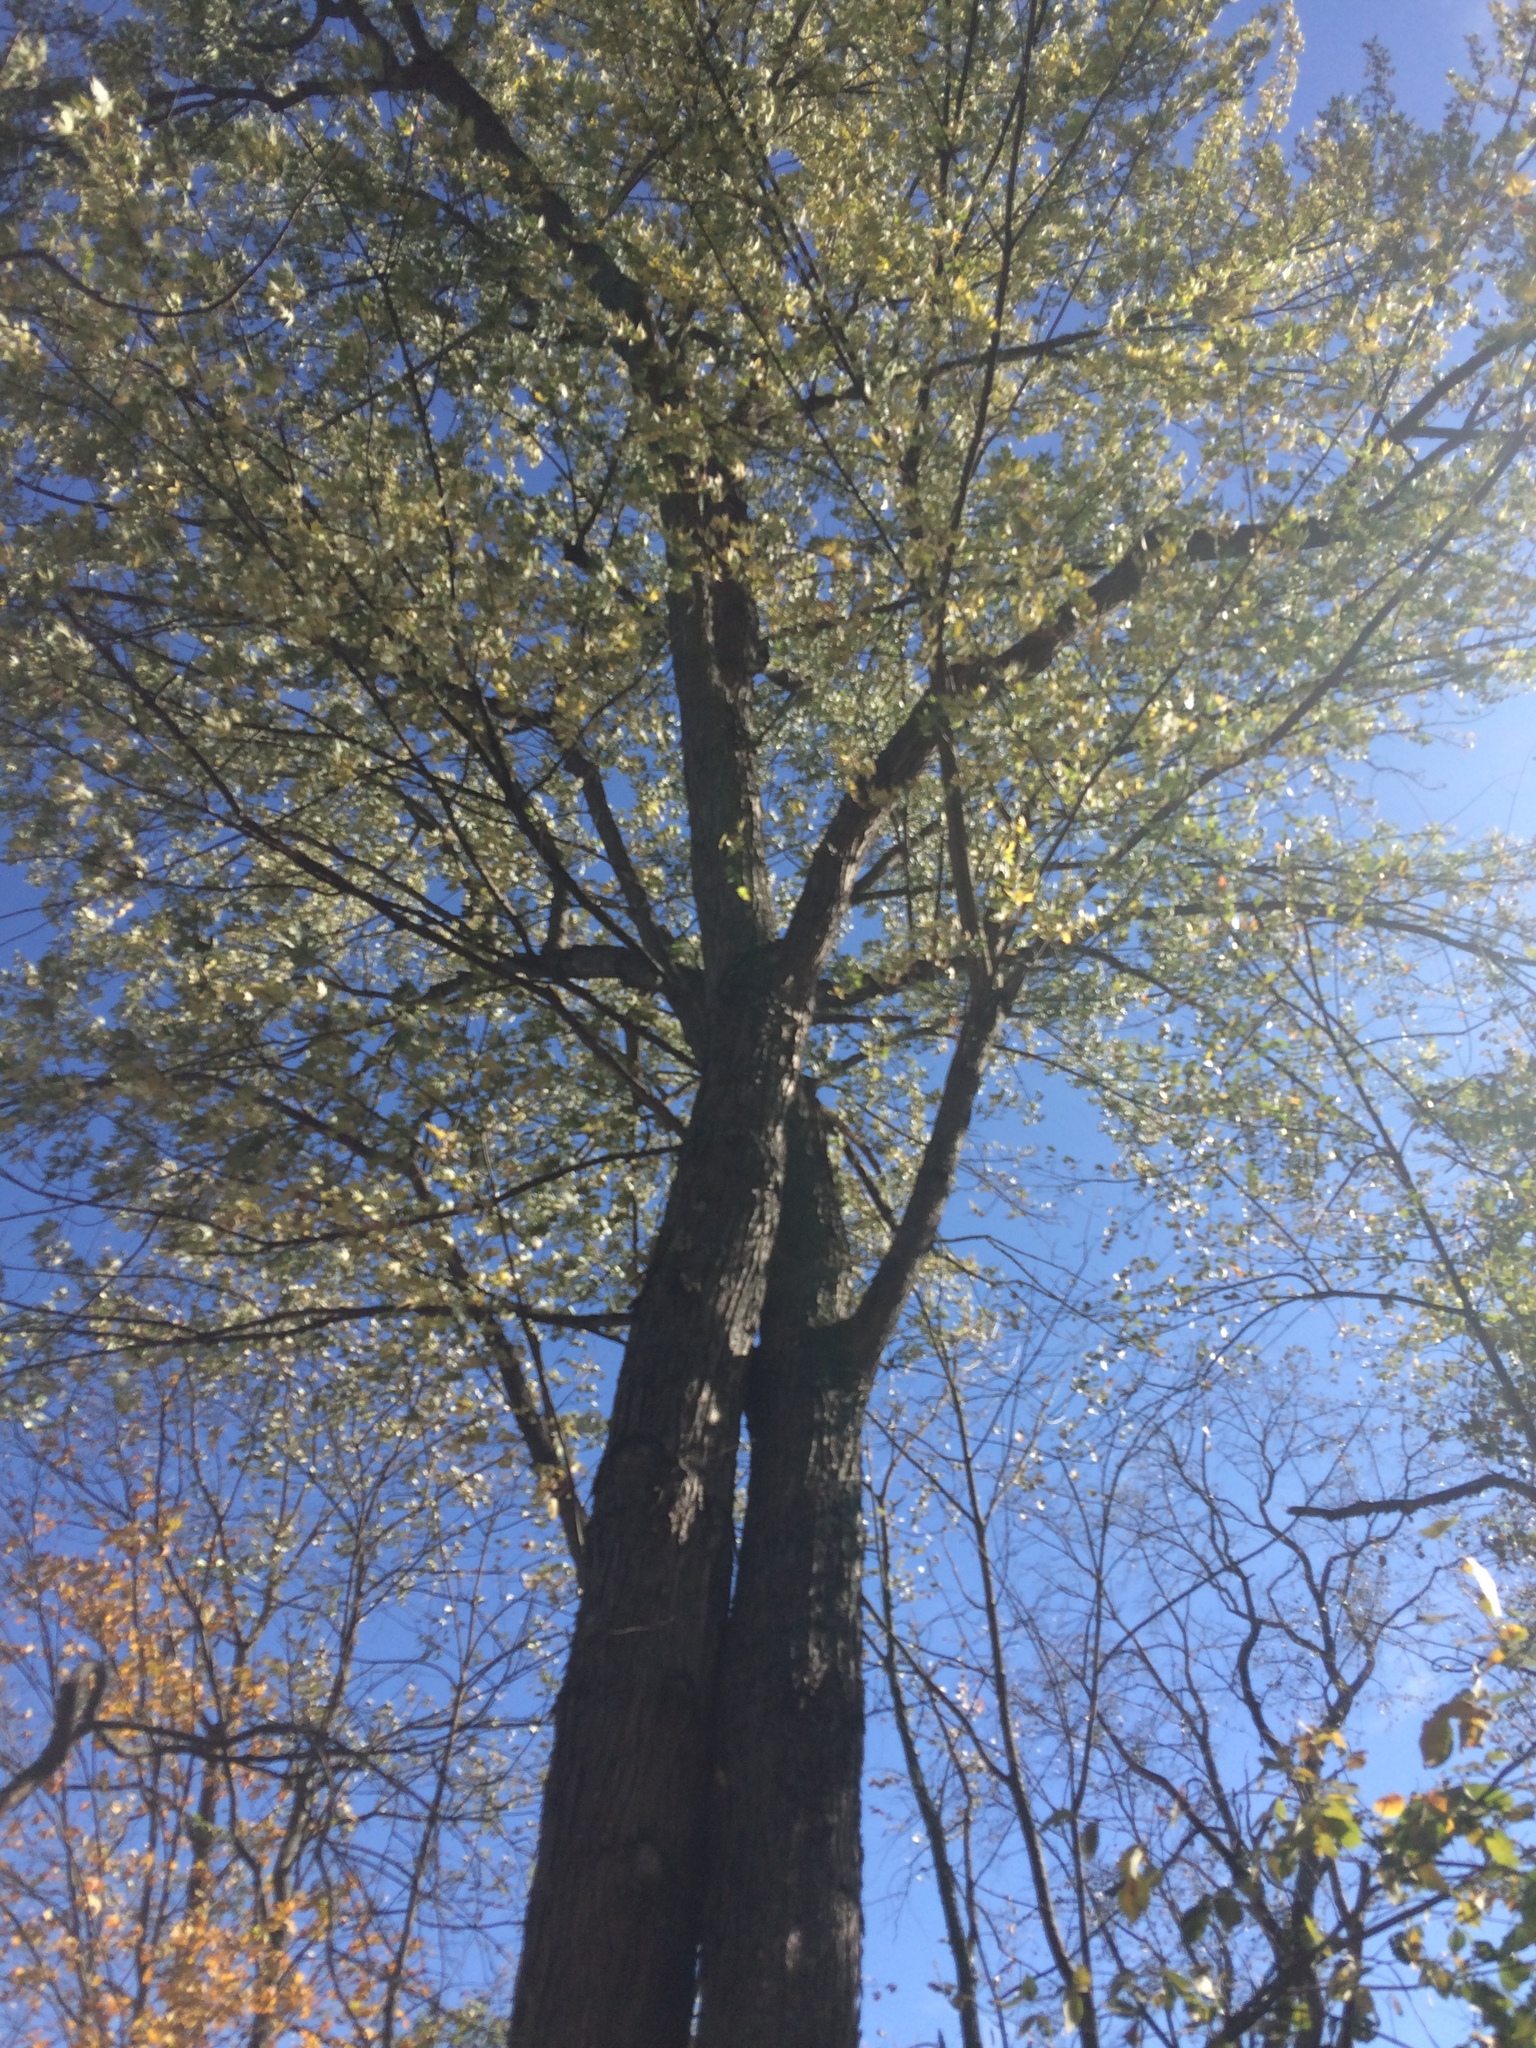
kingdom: Plantae
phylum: Tracheophyta
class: Magnoliopsida
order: Sapindales
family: Sapindaceae
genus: Acer
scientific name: Acer saccharinum
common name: Silver maple
